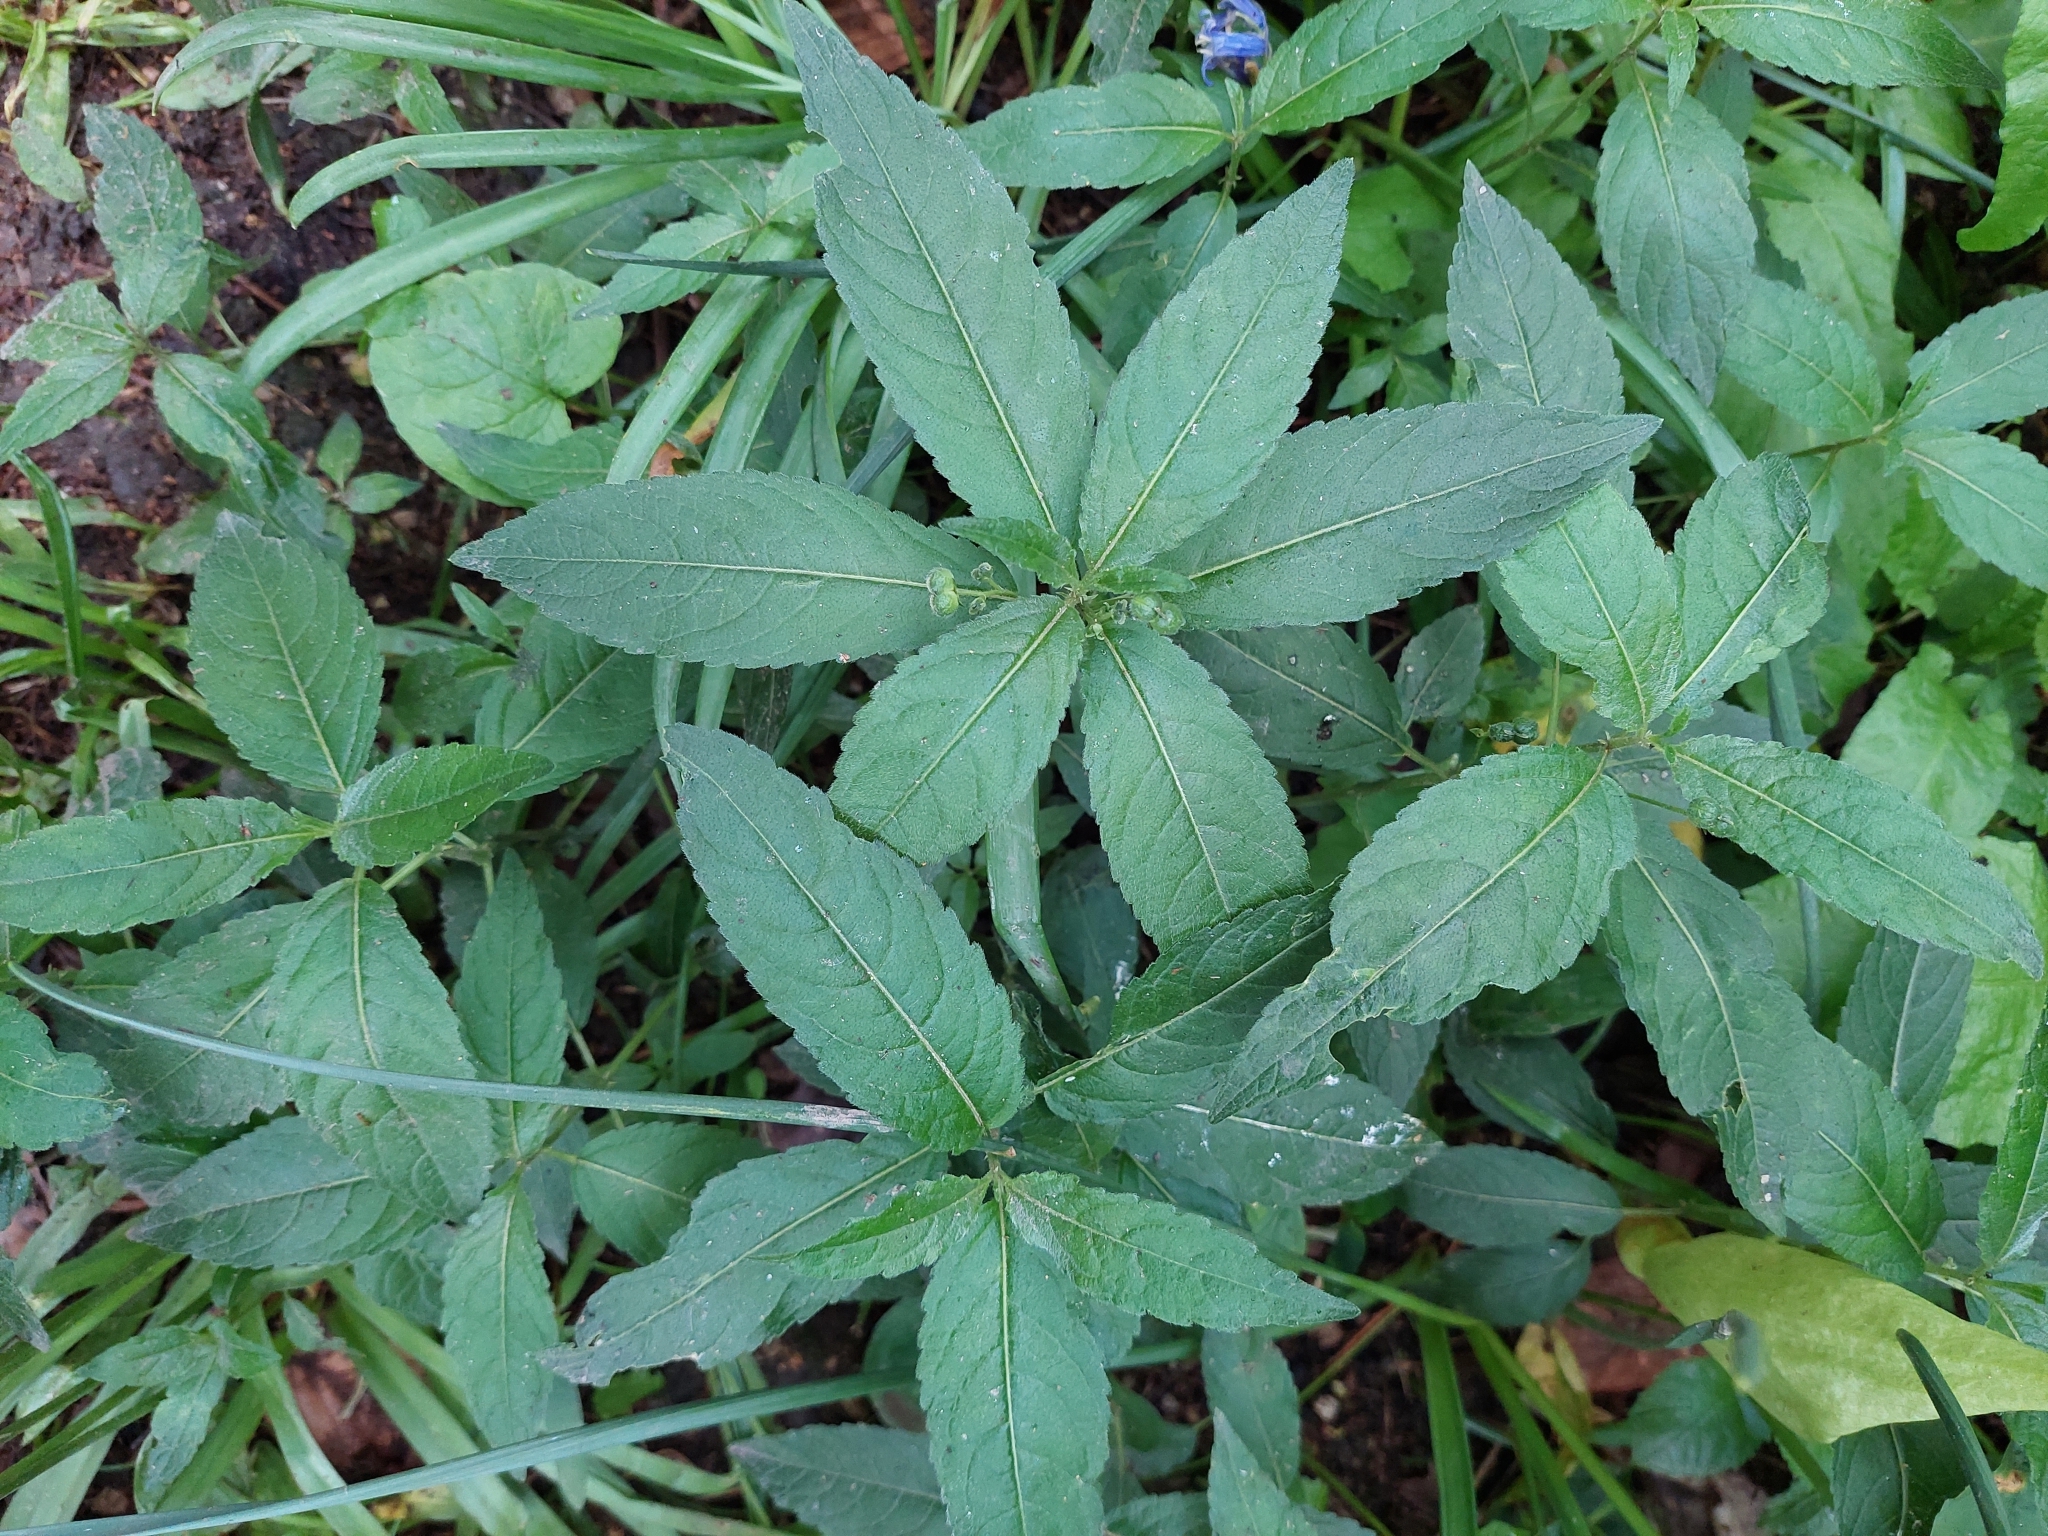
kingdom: Plantae
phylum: Tracheophyta
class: Magnoliopsida
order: Malpighiales
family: Euphorbiaceae
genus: Mercurialis
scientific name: Mercurialis perennis
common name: Dog mercury
